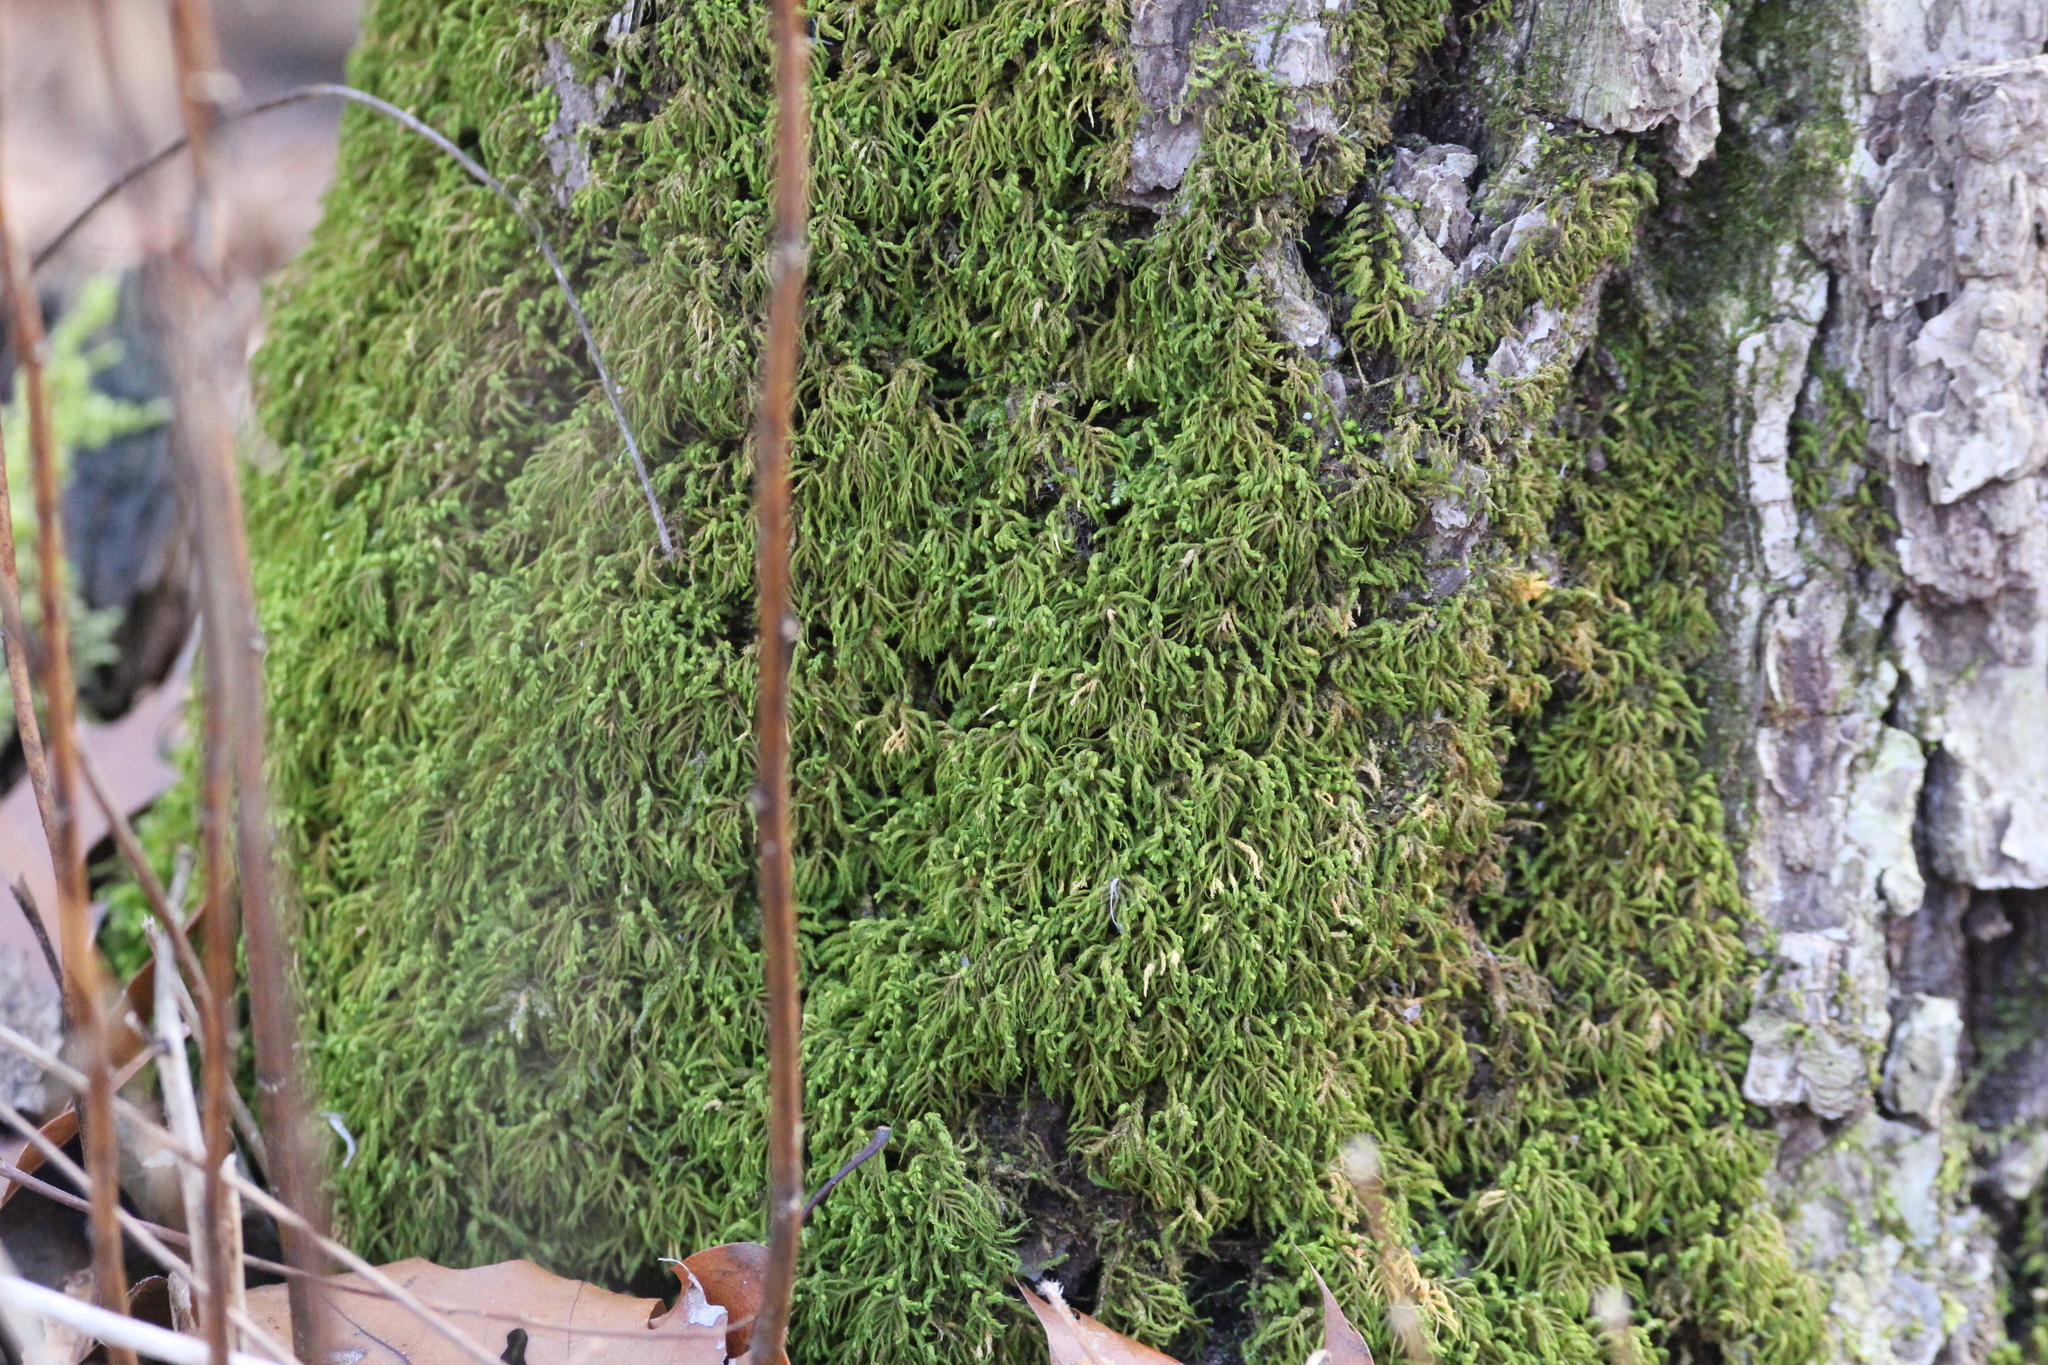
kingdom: Plantae
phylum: Bryophyta
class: Bryopsida
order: Hypnales
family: Neckeraceae
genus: Pseudanomodon
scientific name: Pseudanomodon attenuatus
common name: Tree-skirt moss
